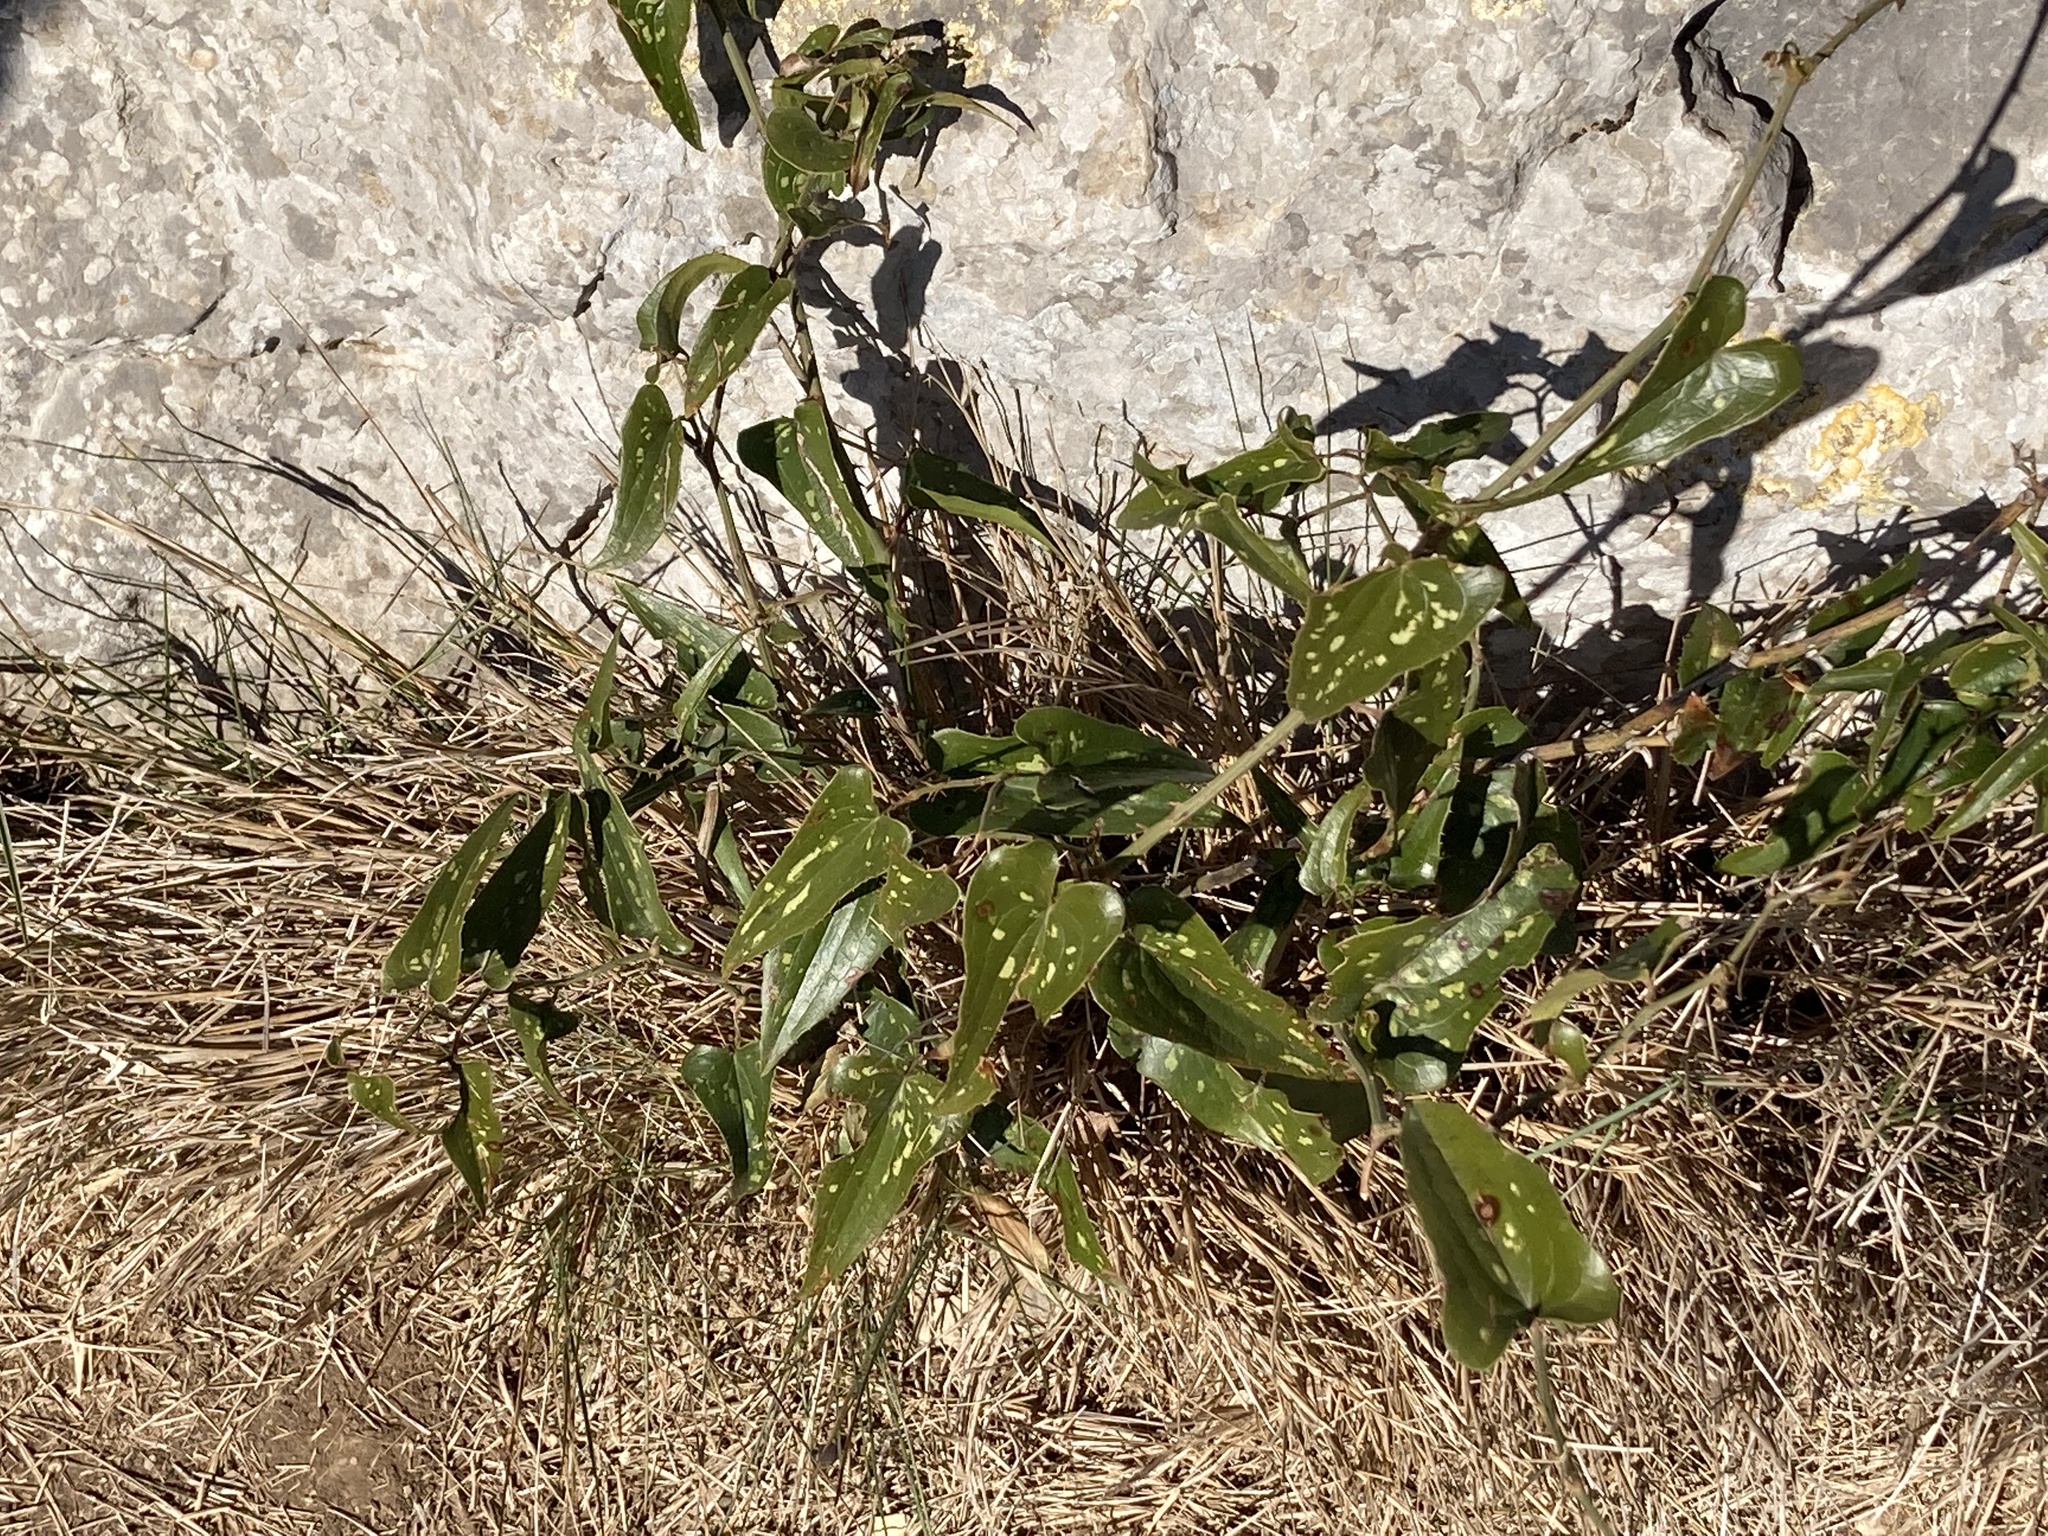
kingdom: Plantae
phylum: Tracheophyta
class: Liliopsida
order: Liliales
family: Smilacaceae
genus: Smilax
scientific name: Smilax aspera
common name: Common smilax
